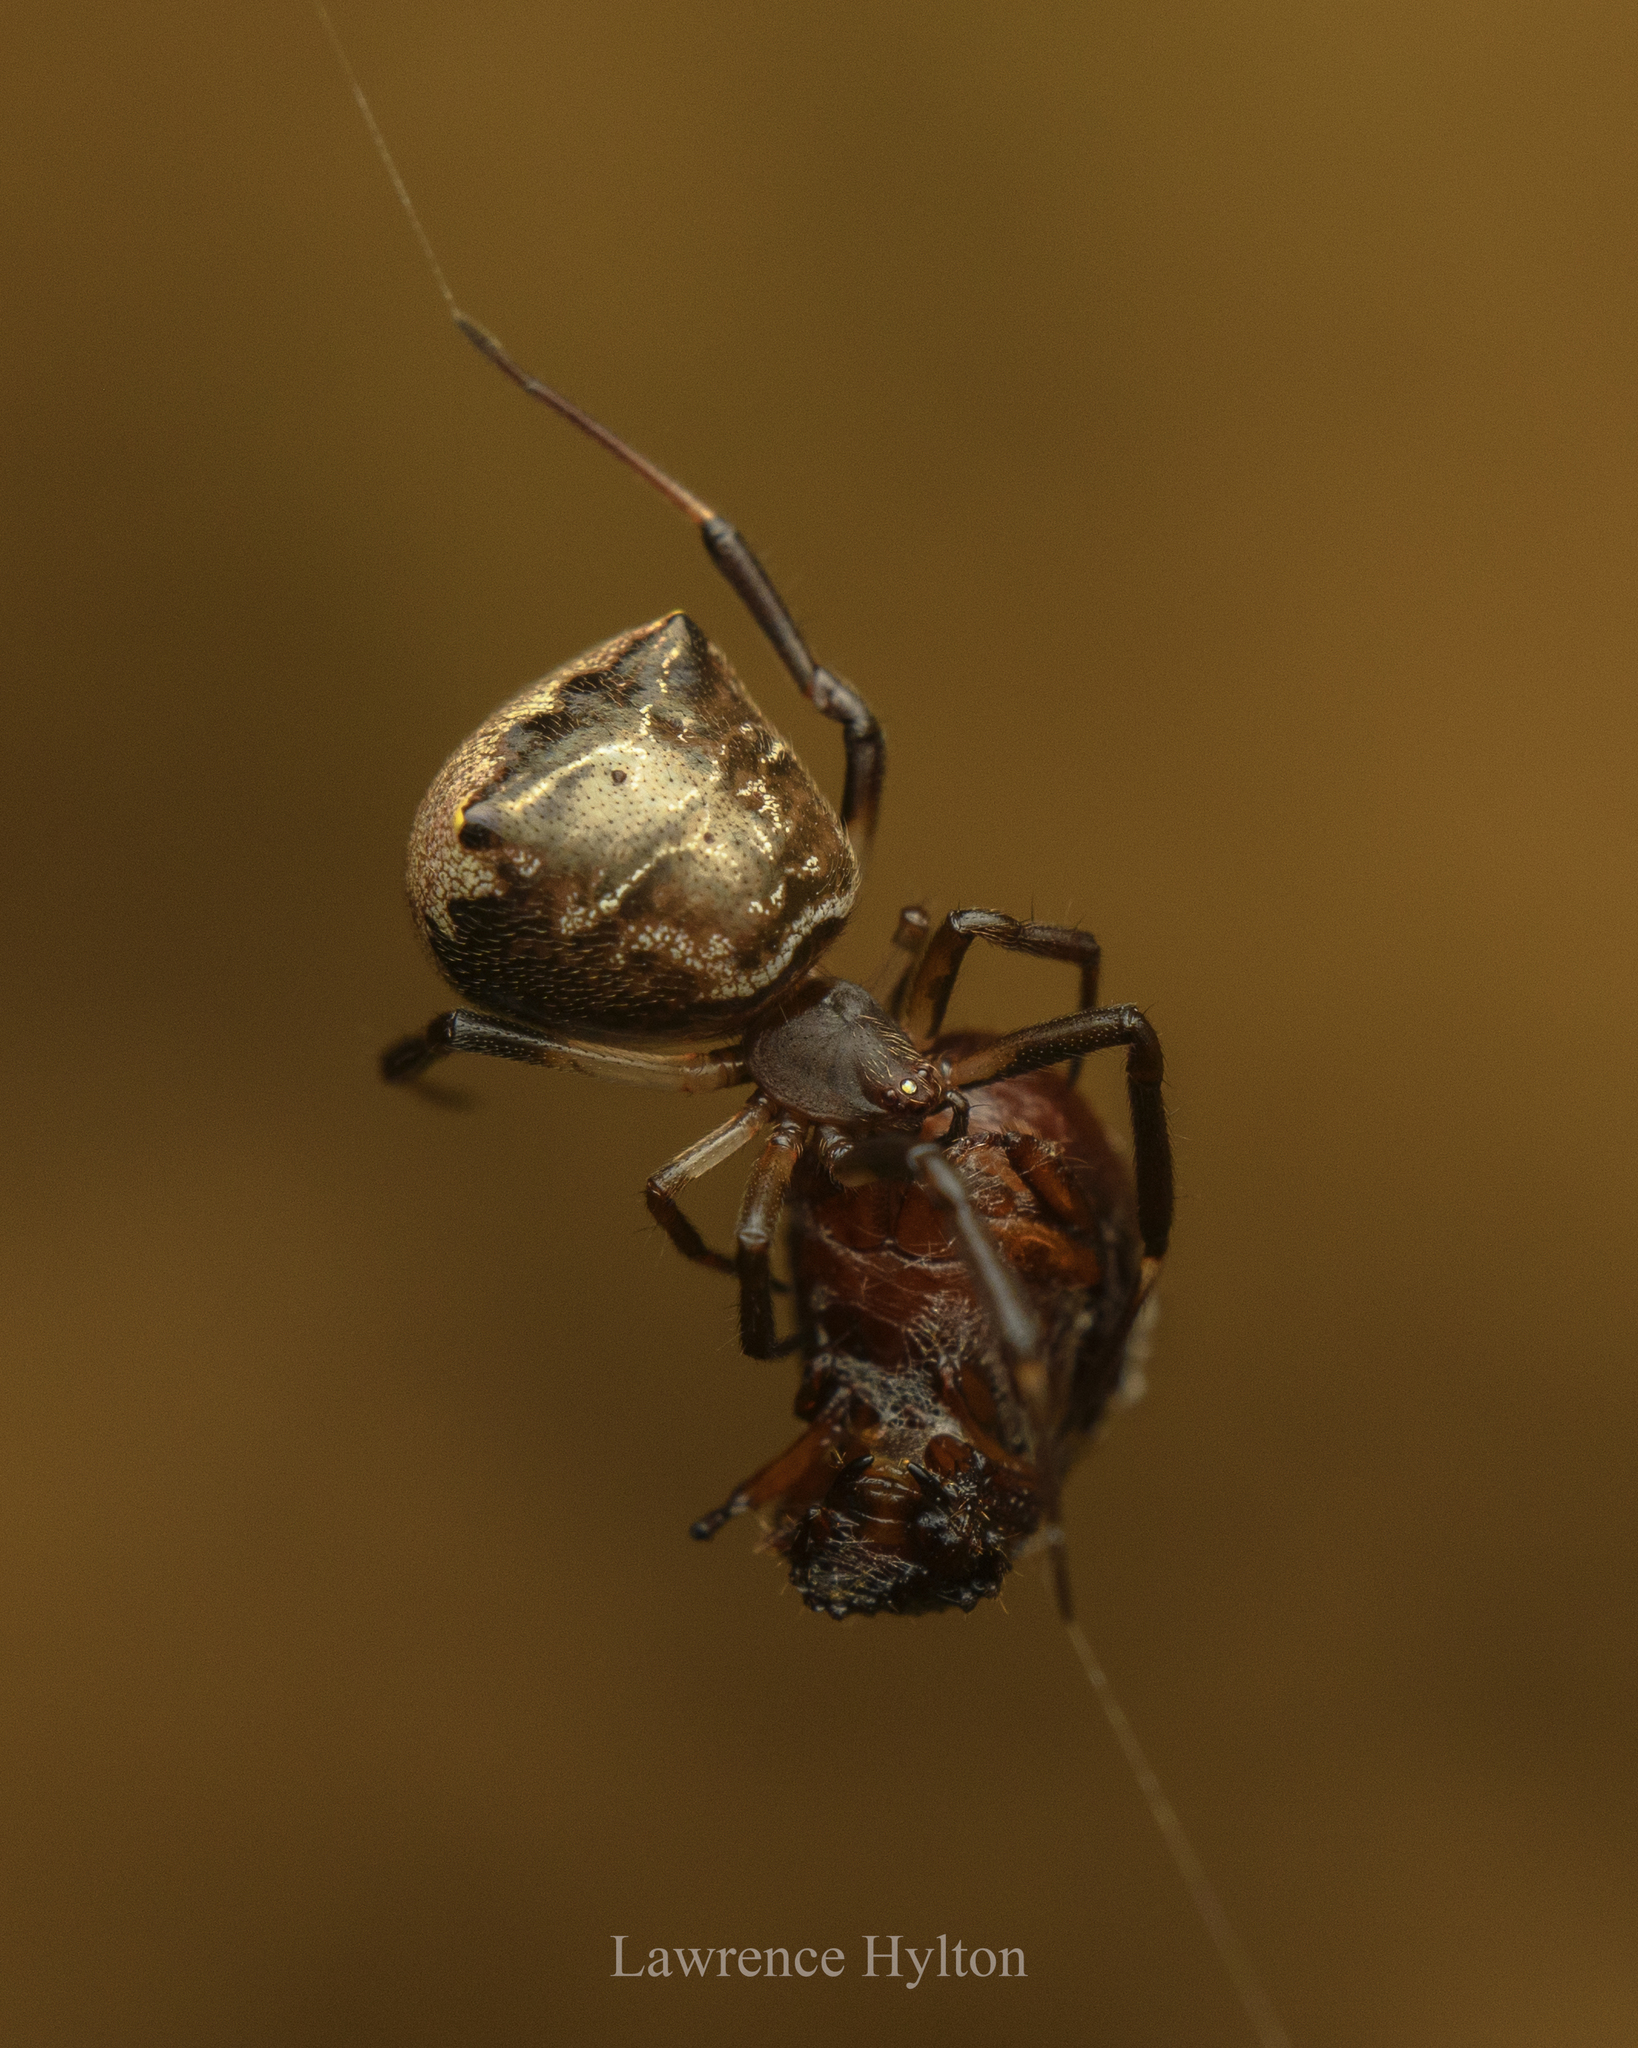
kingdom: Animalia
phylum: Arthropoda
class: Arachnida
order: Araneae
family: Theridiidae
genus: Episinus
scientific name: Episinus nubilus
